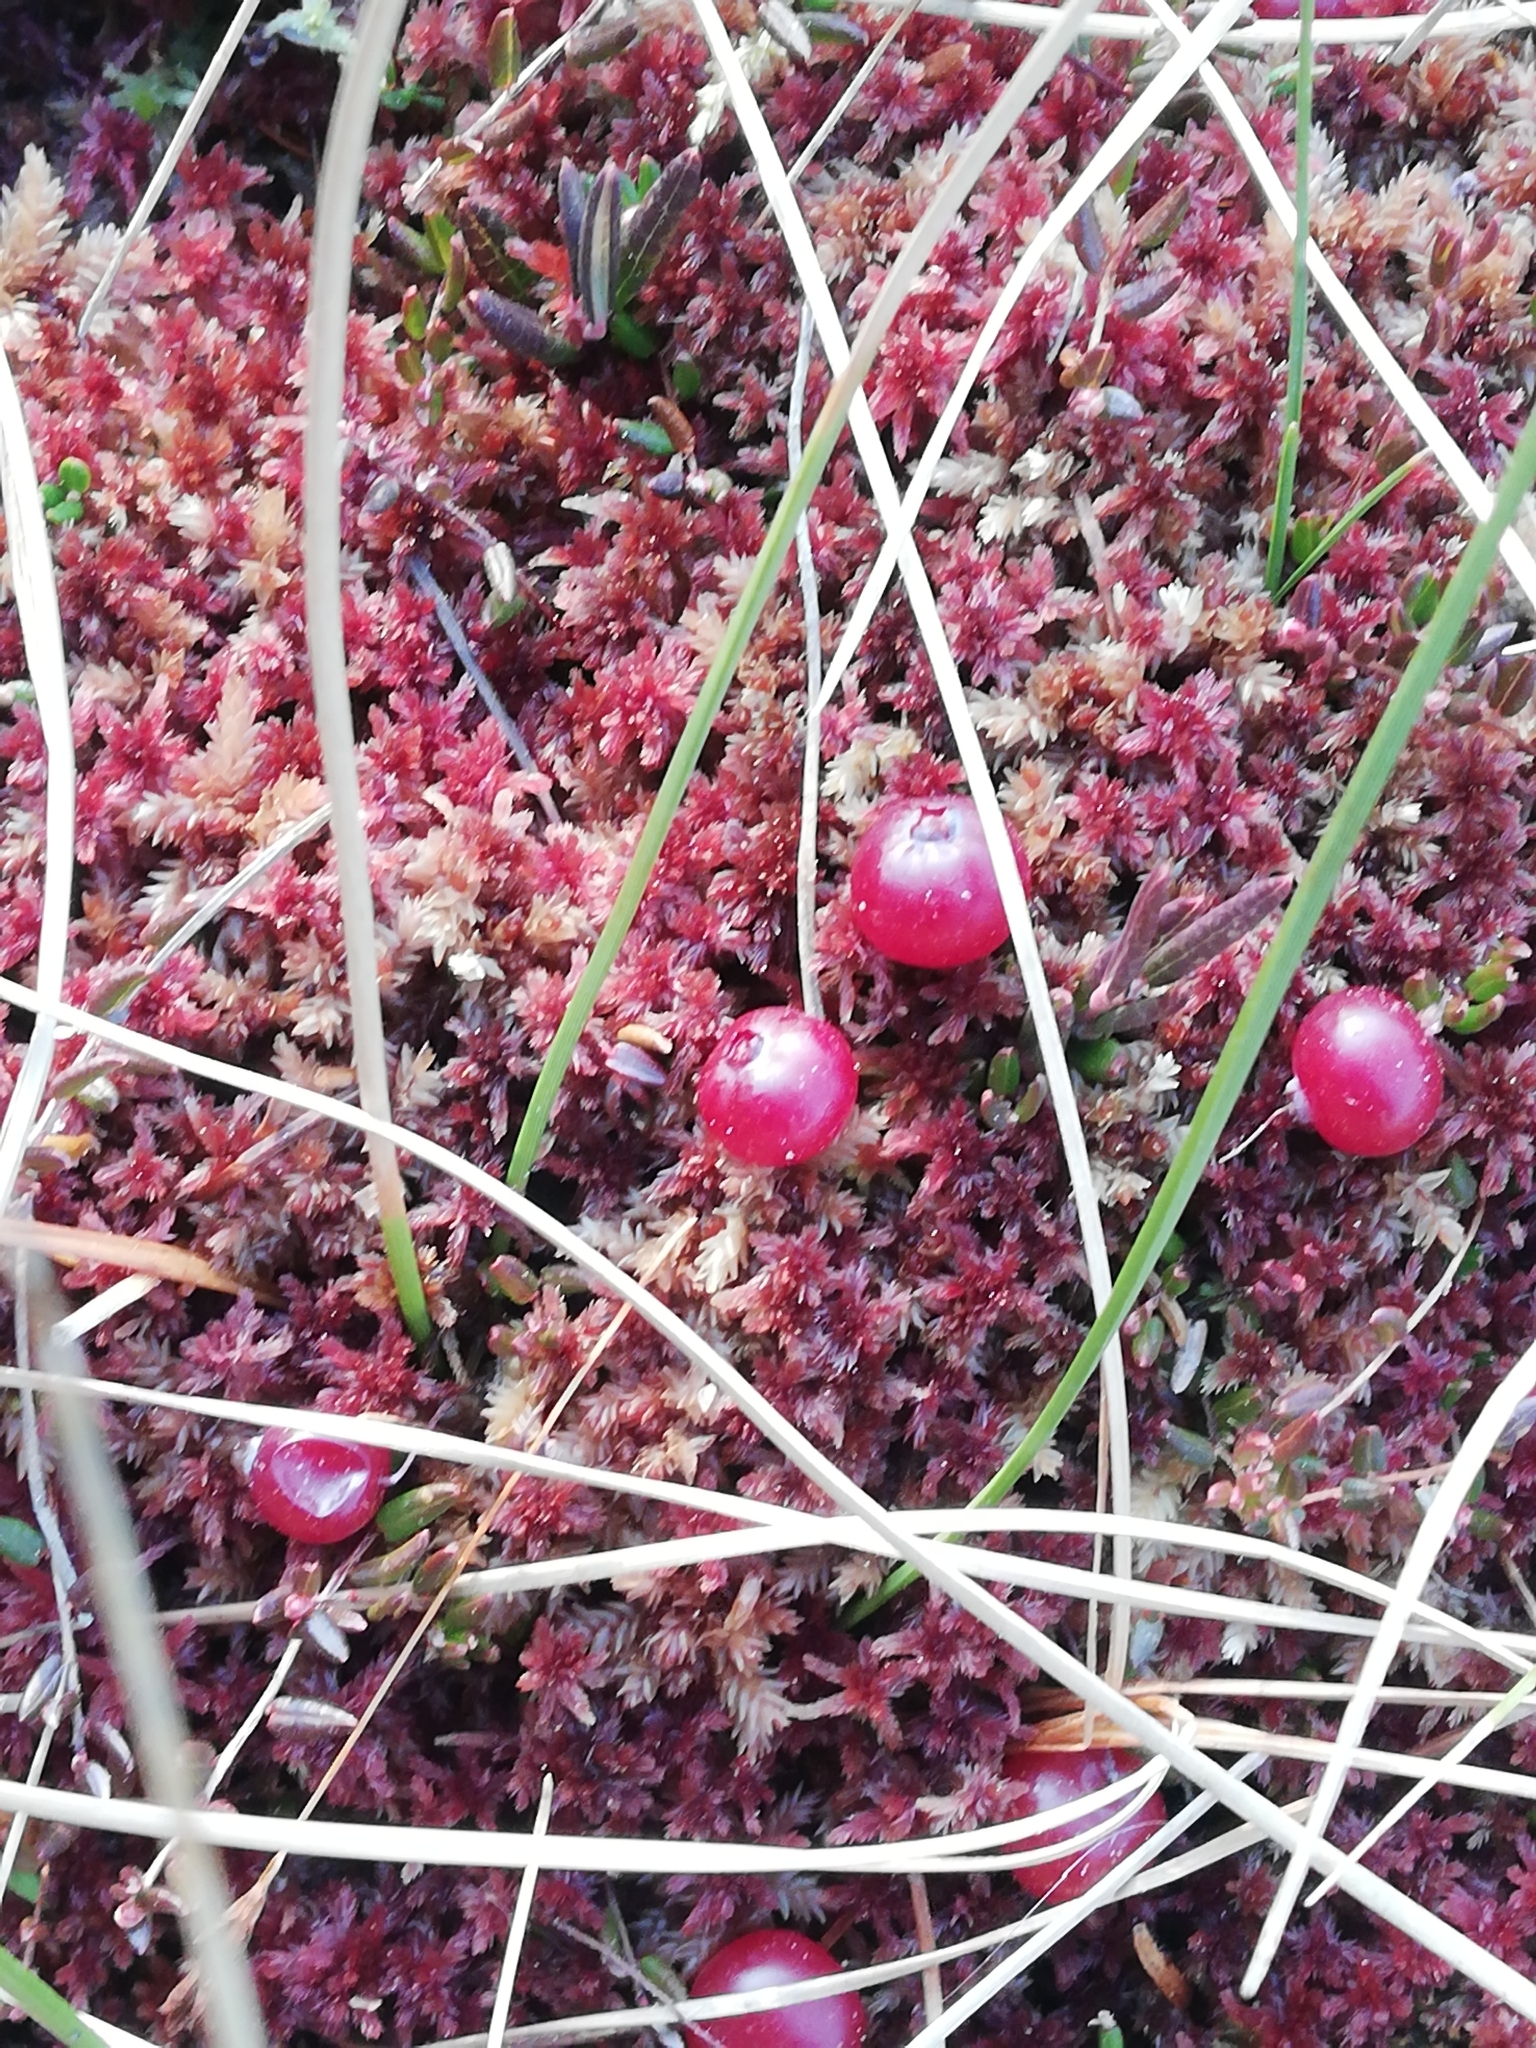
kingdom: Plantae
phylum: Tracheophyta
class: Magnoliopsida
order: Ericales
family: Ericaceae
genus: Vaccinium
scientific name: Vaccinium oxycoccos
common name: Cranberry
